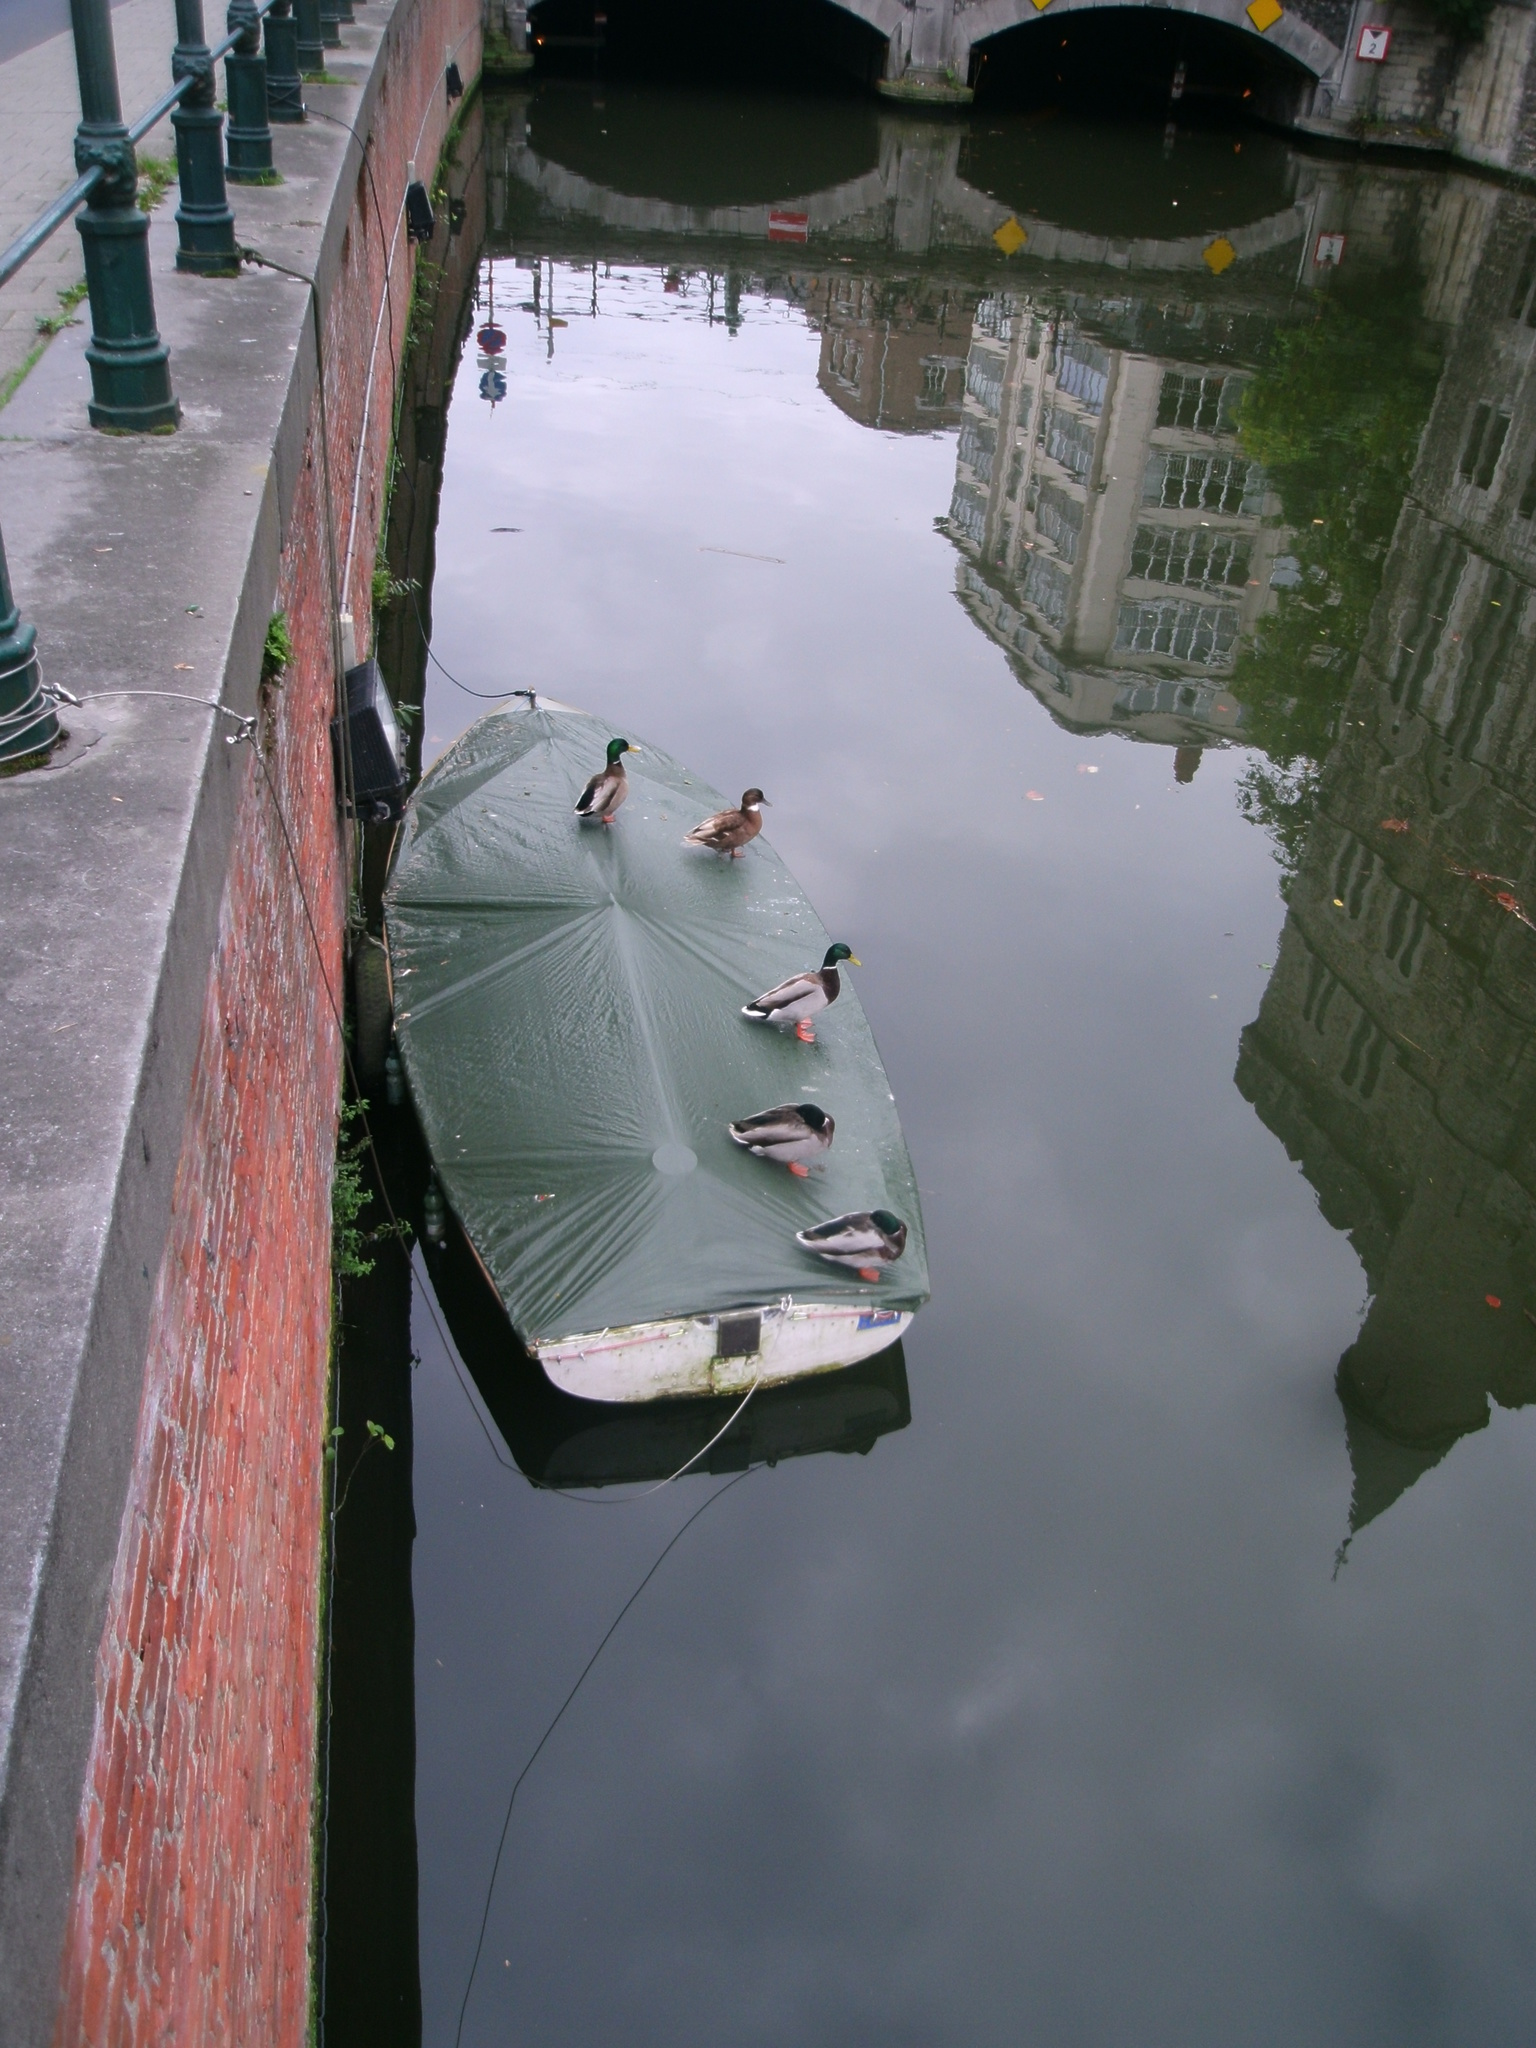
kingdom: Animalia
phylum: Chordata
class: Aves
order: Anseriformes
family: Anatidae
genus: Anas
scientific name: Anas platyrhynchos
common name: Mallard
